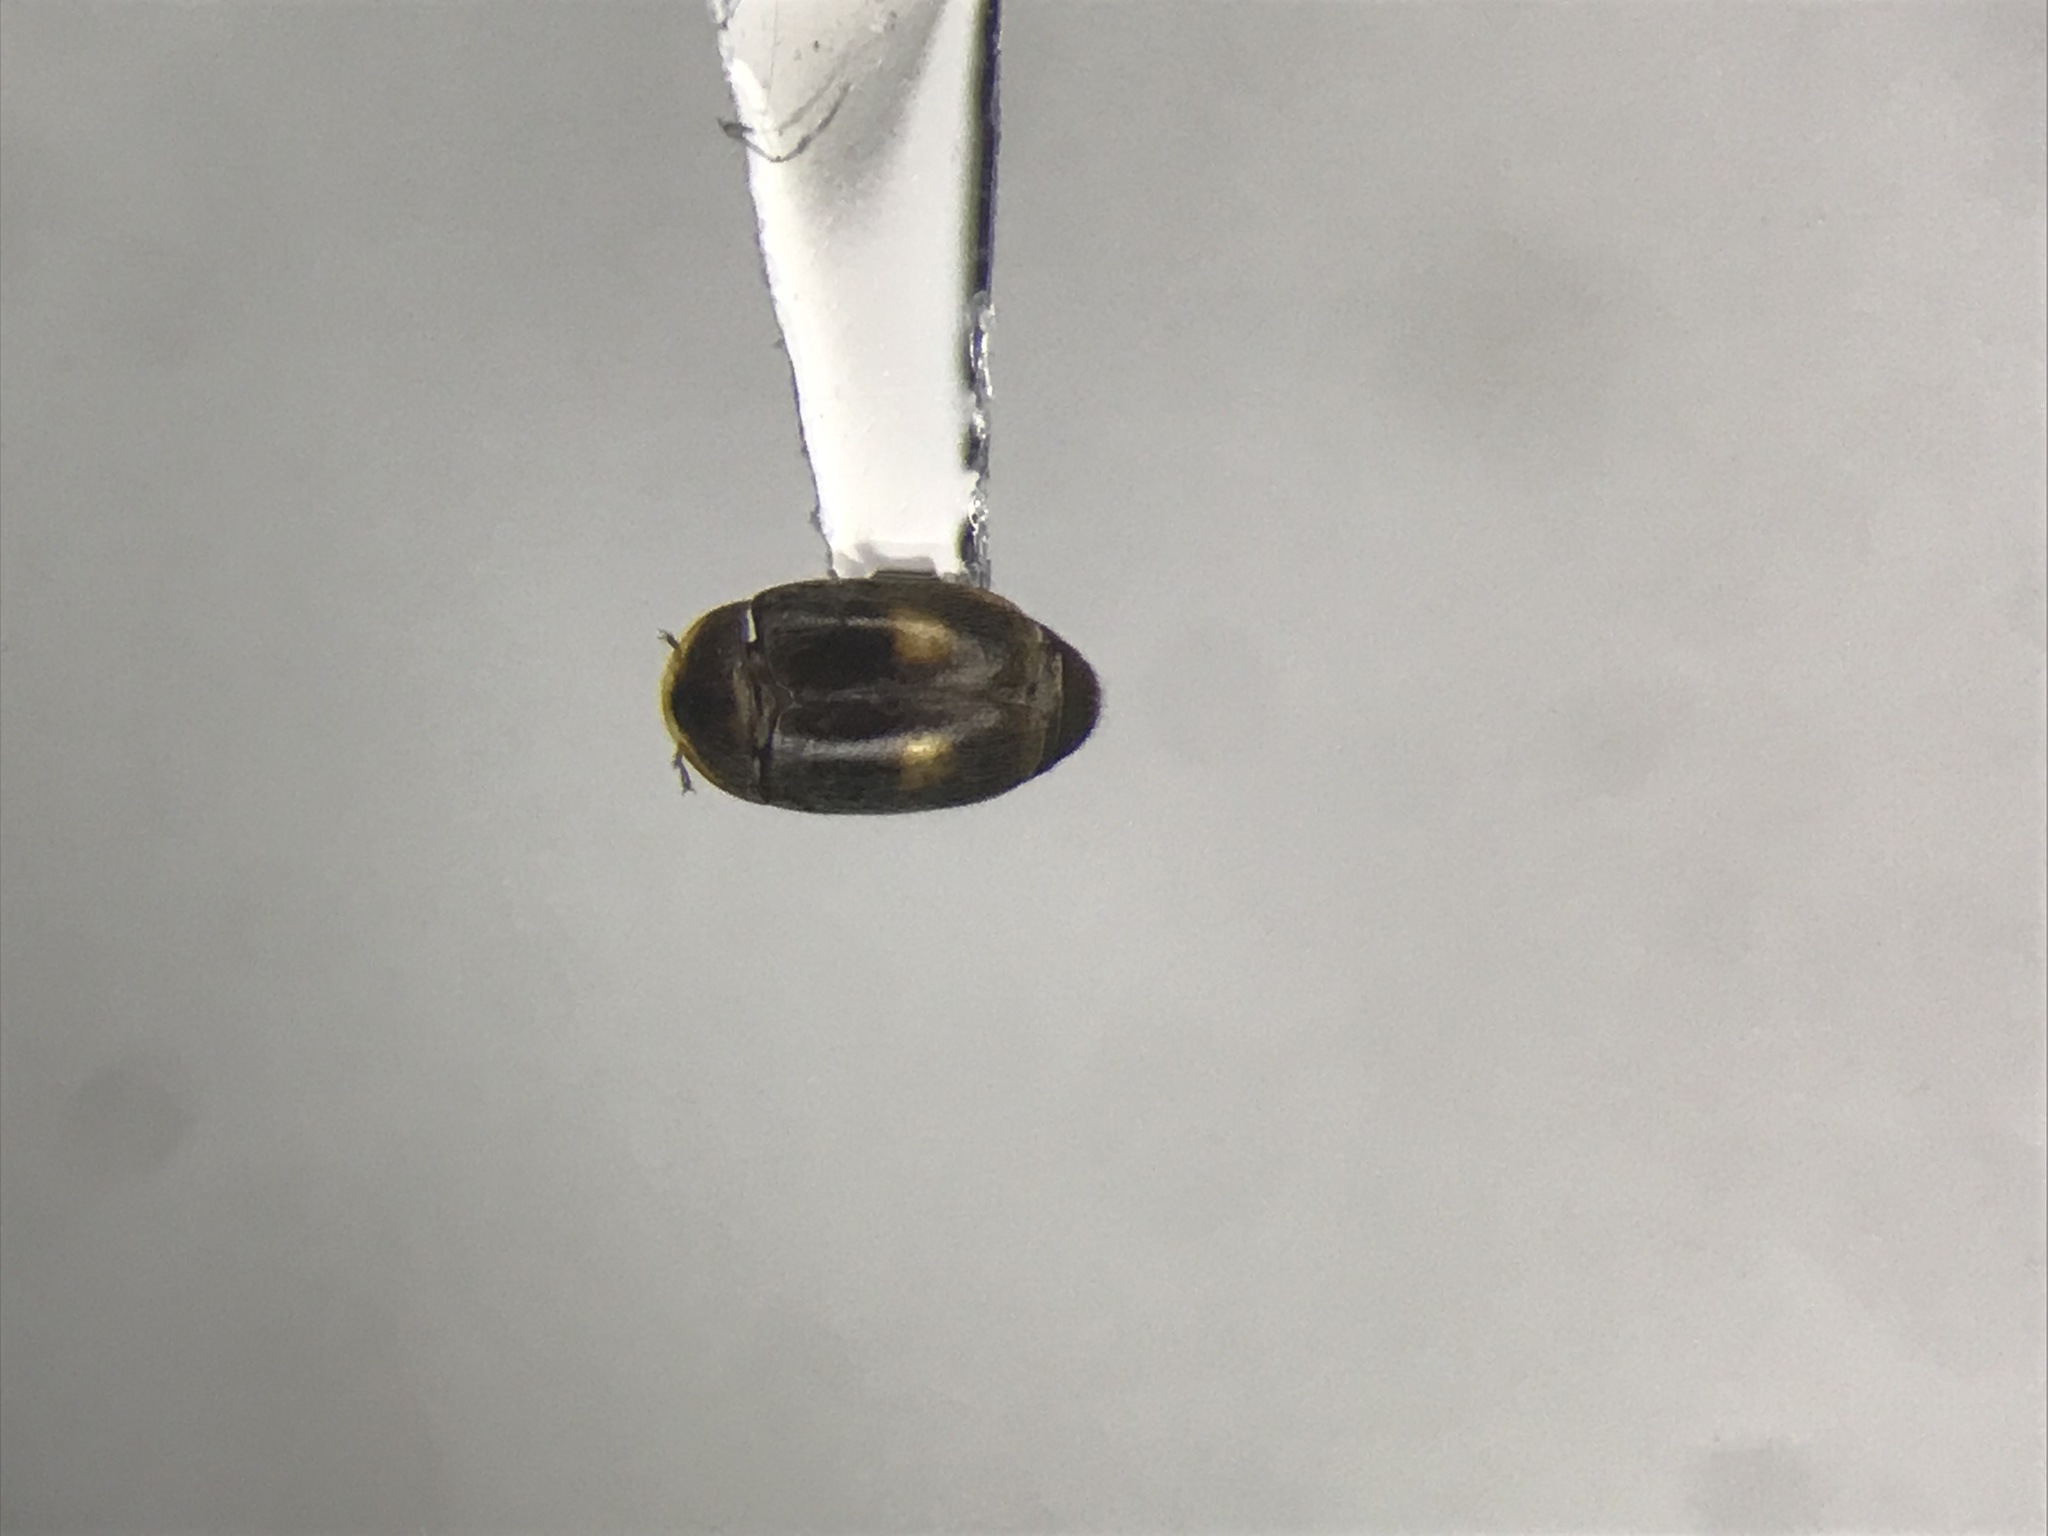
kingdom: Animalia
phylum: Arthropoda
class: Insecta
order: Coleoptera
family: Corylophidae
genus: Clypastraea
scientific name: Clypastraea lunata
